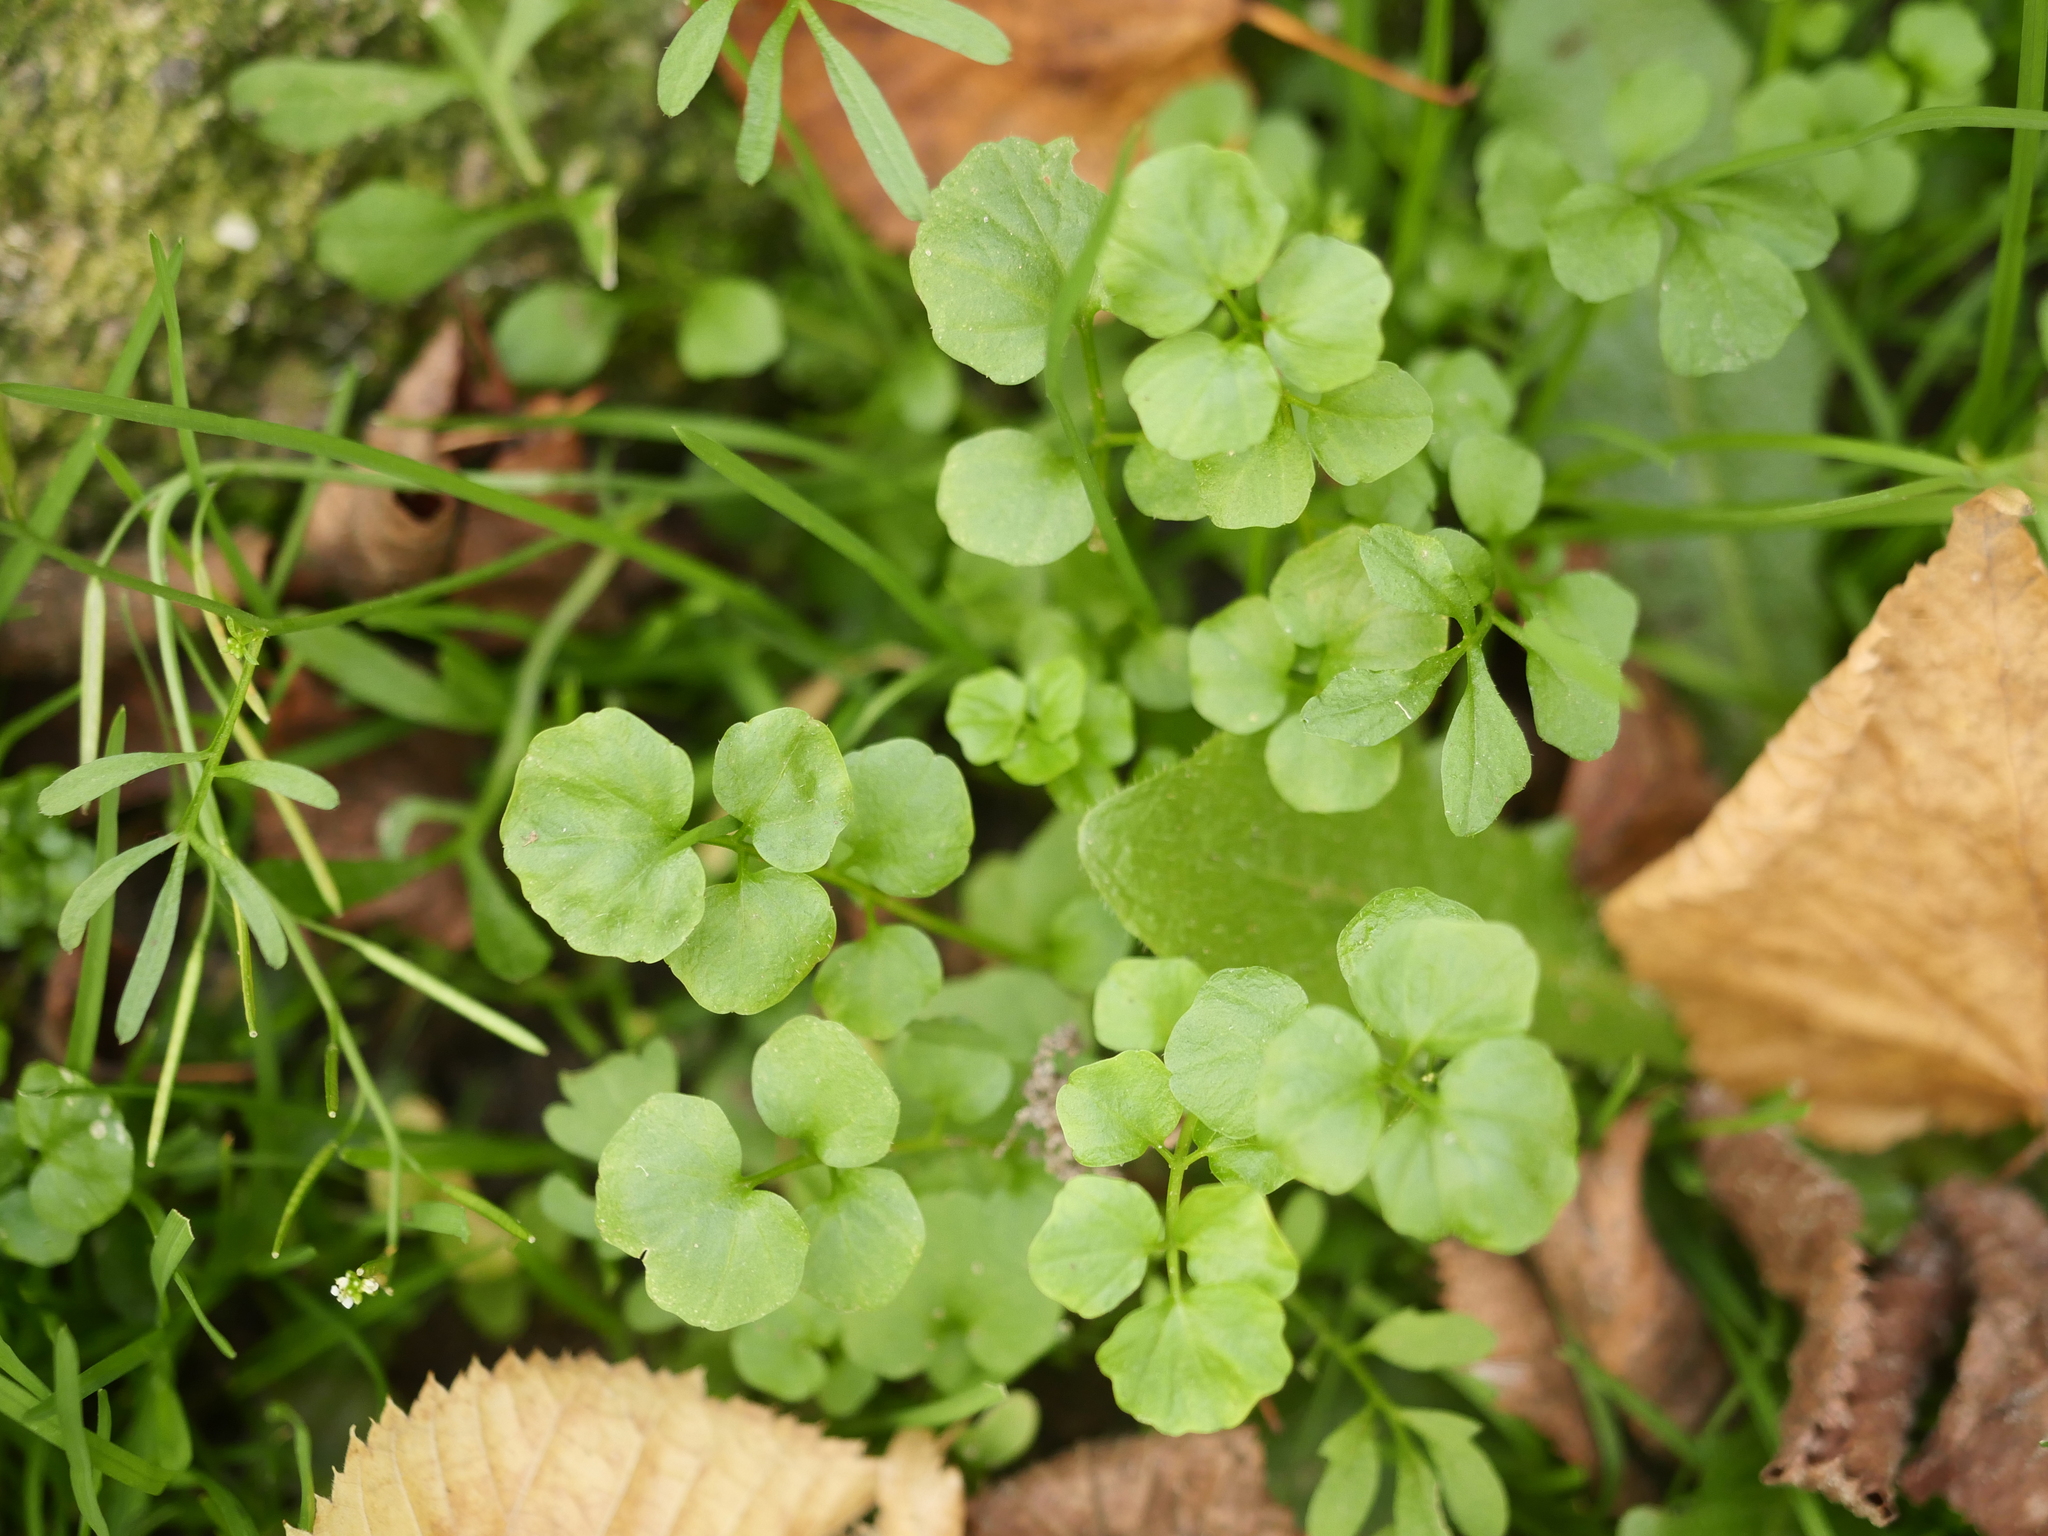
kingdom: Plantae
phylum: Tracheophyta
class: Magnoliopsida
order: Brassicales
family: Brassicaceae
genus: Cardamine
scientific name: Cardamine hirsuta
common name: Hairy bittercress
